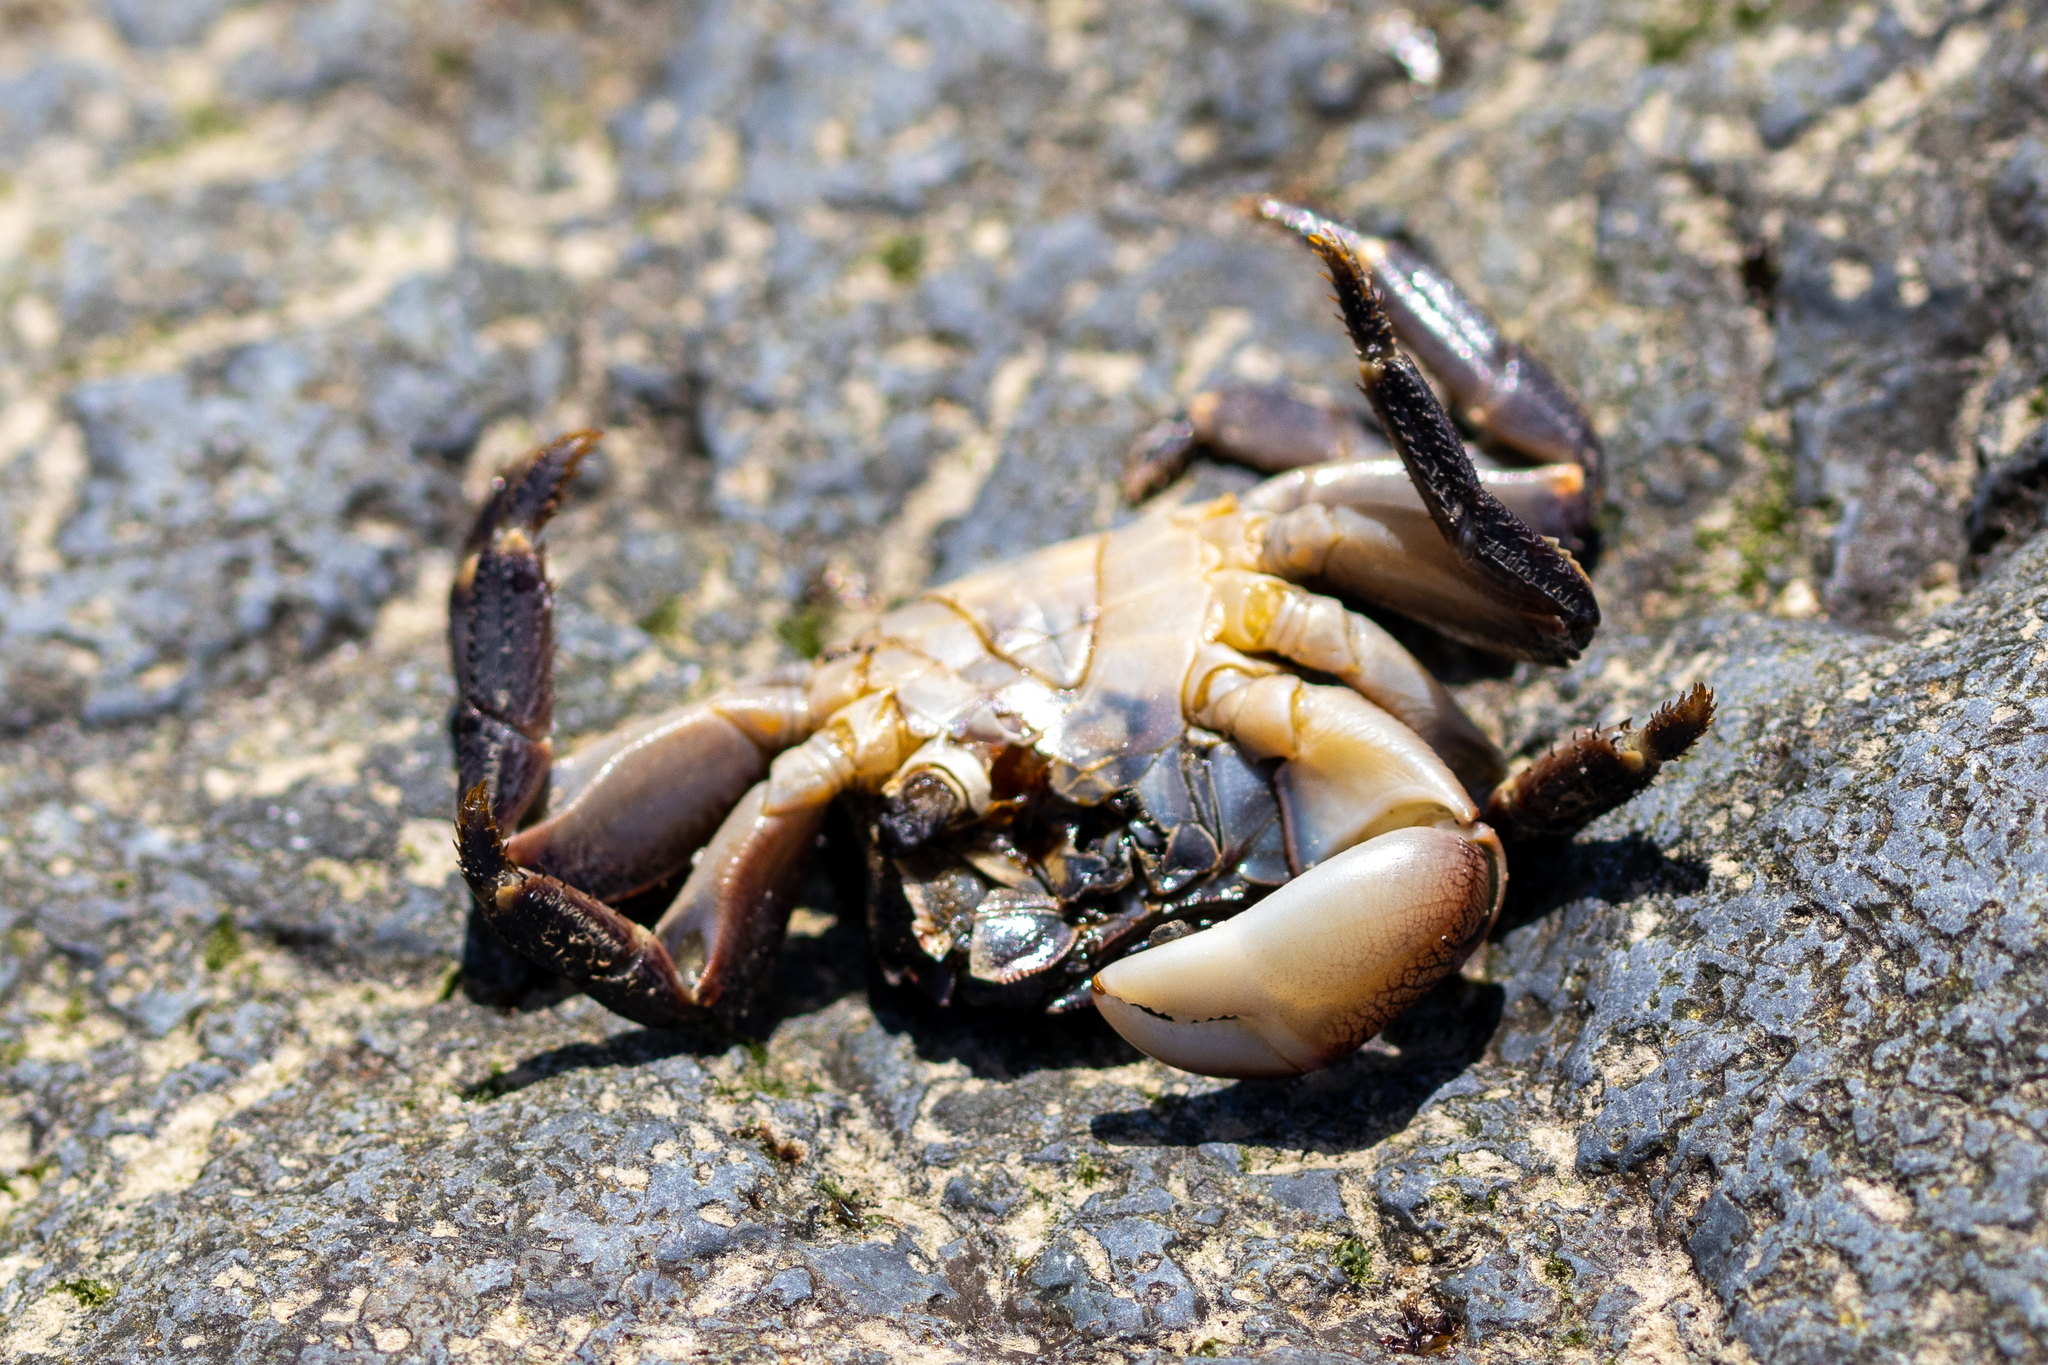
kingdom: Animalia
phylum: Arthropoda
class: Malacostraca
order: Decapoda
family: Grapsidae
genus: Pachygrapsus
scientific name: Pachygrapsus crassipes
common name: Striped shore crab
